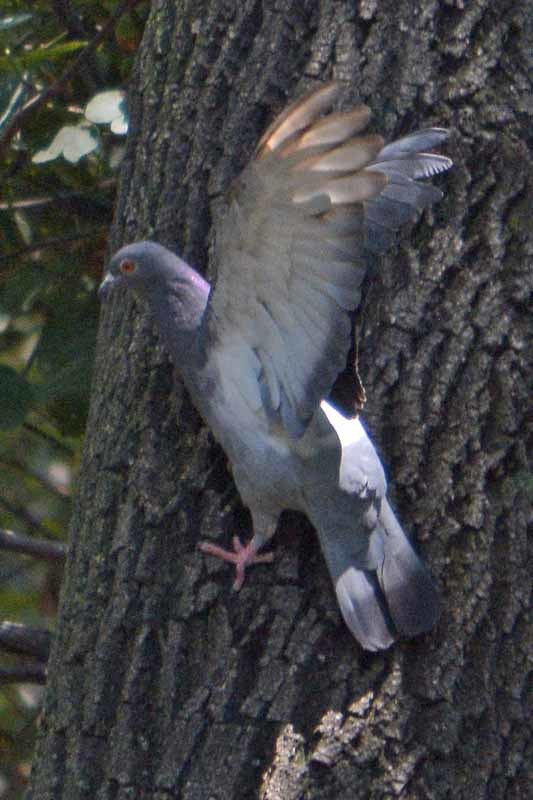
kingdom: Animalia
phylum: Chordata
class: Aves
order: Columbiformes
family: Columbidae
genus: Columba
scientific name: Columba livia
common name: Rock pigeon
